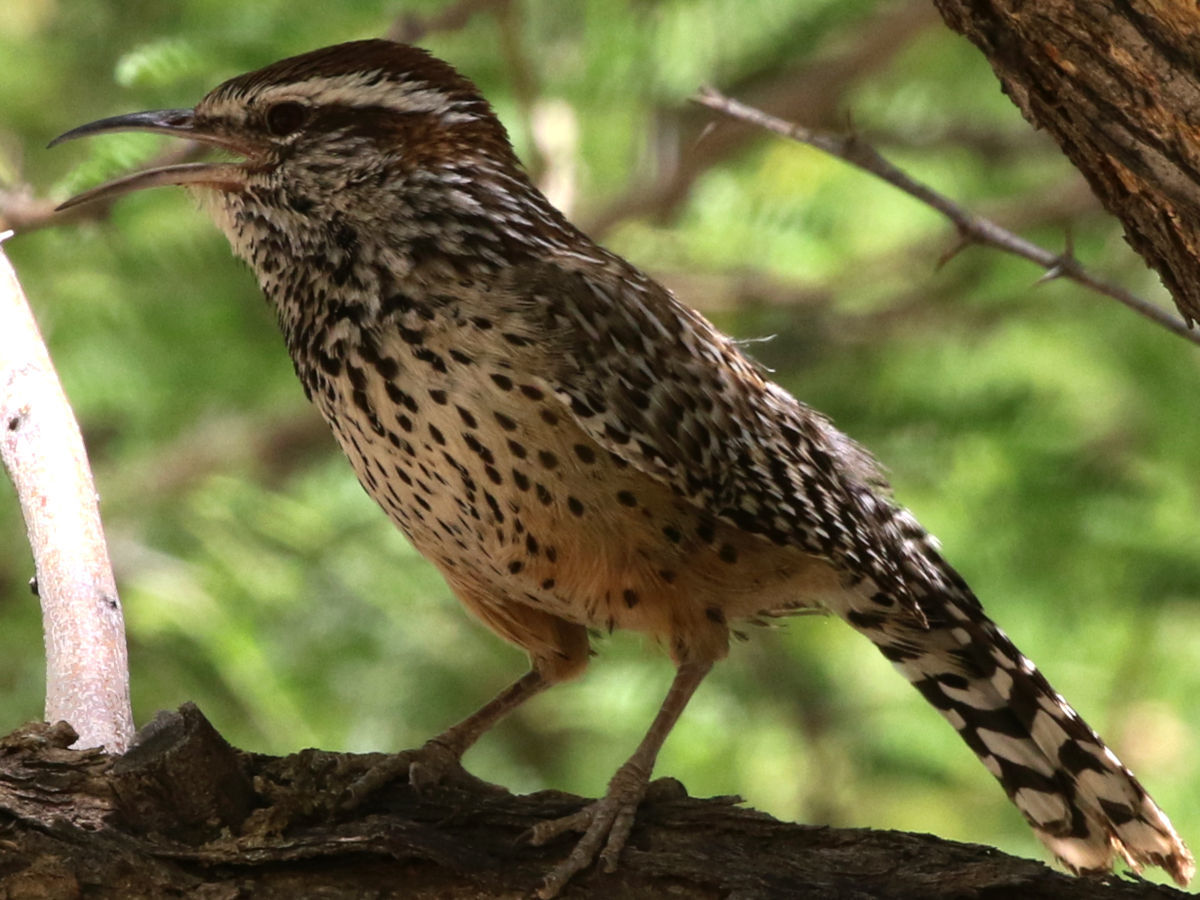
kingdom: Animalia
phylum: Chordata
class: Aves
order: Passeriformes
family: Troglodytidae
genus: Campylorhynchus
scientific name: Campylorhynchus brunneicapillus
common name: Cactus wren
